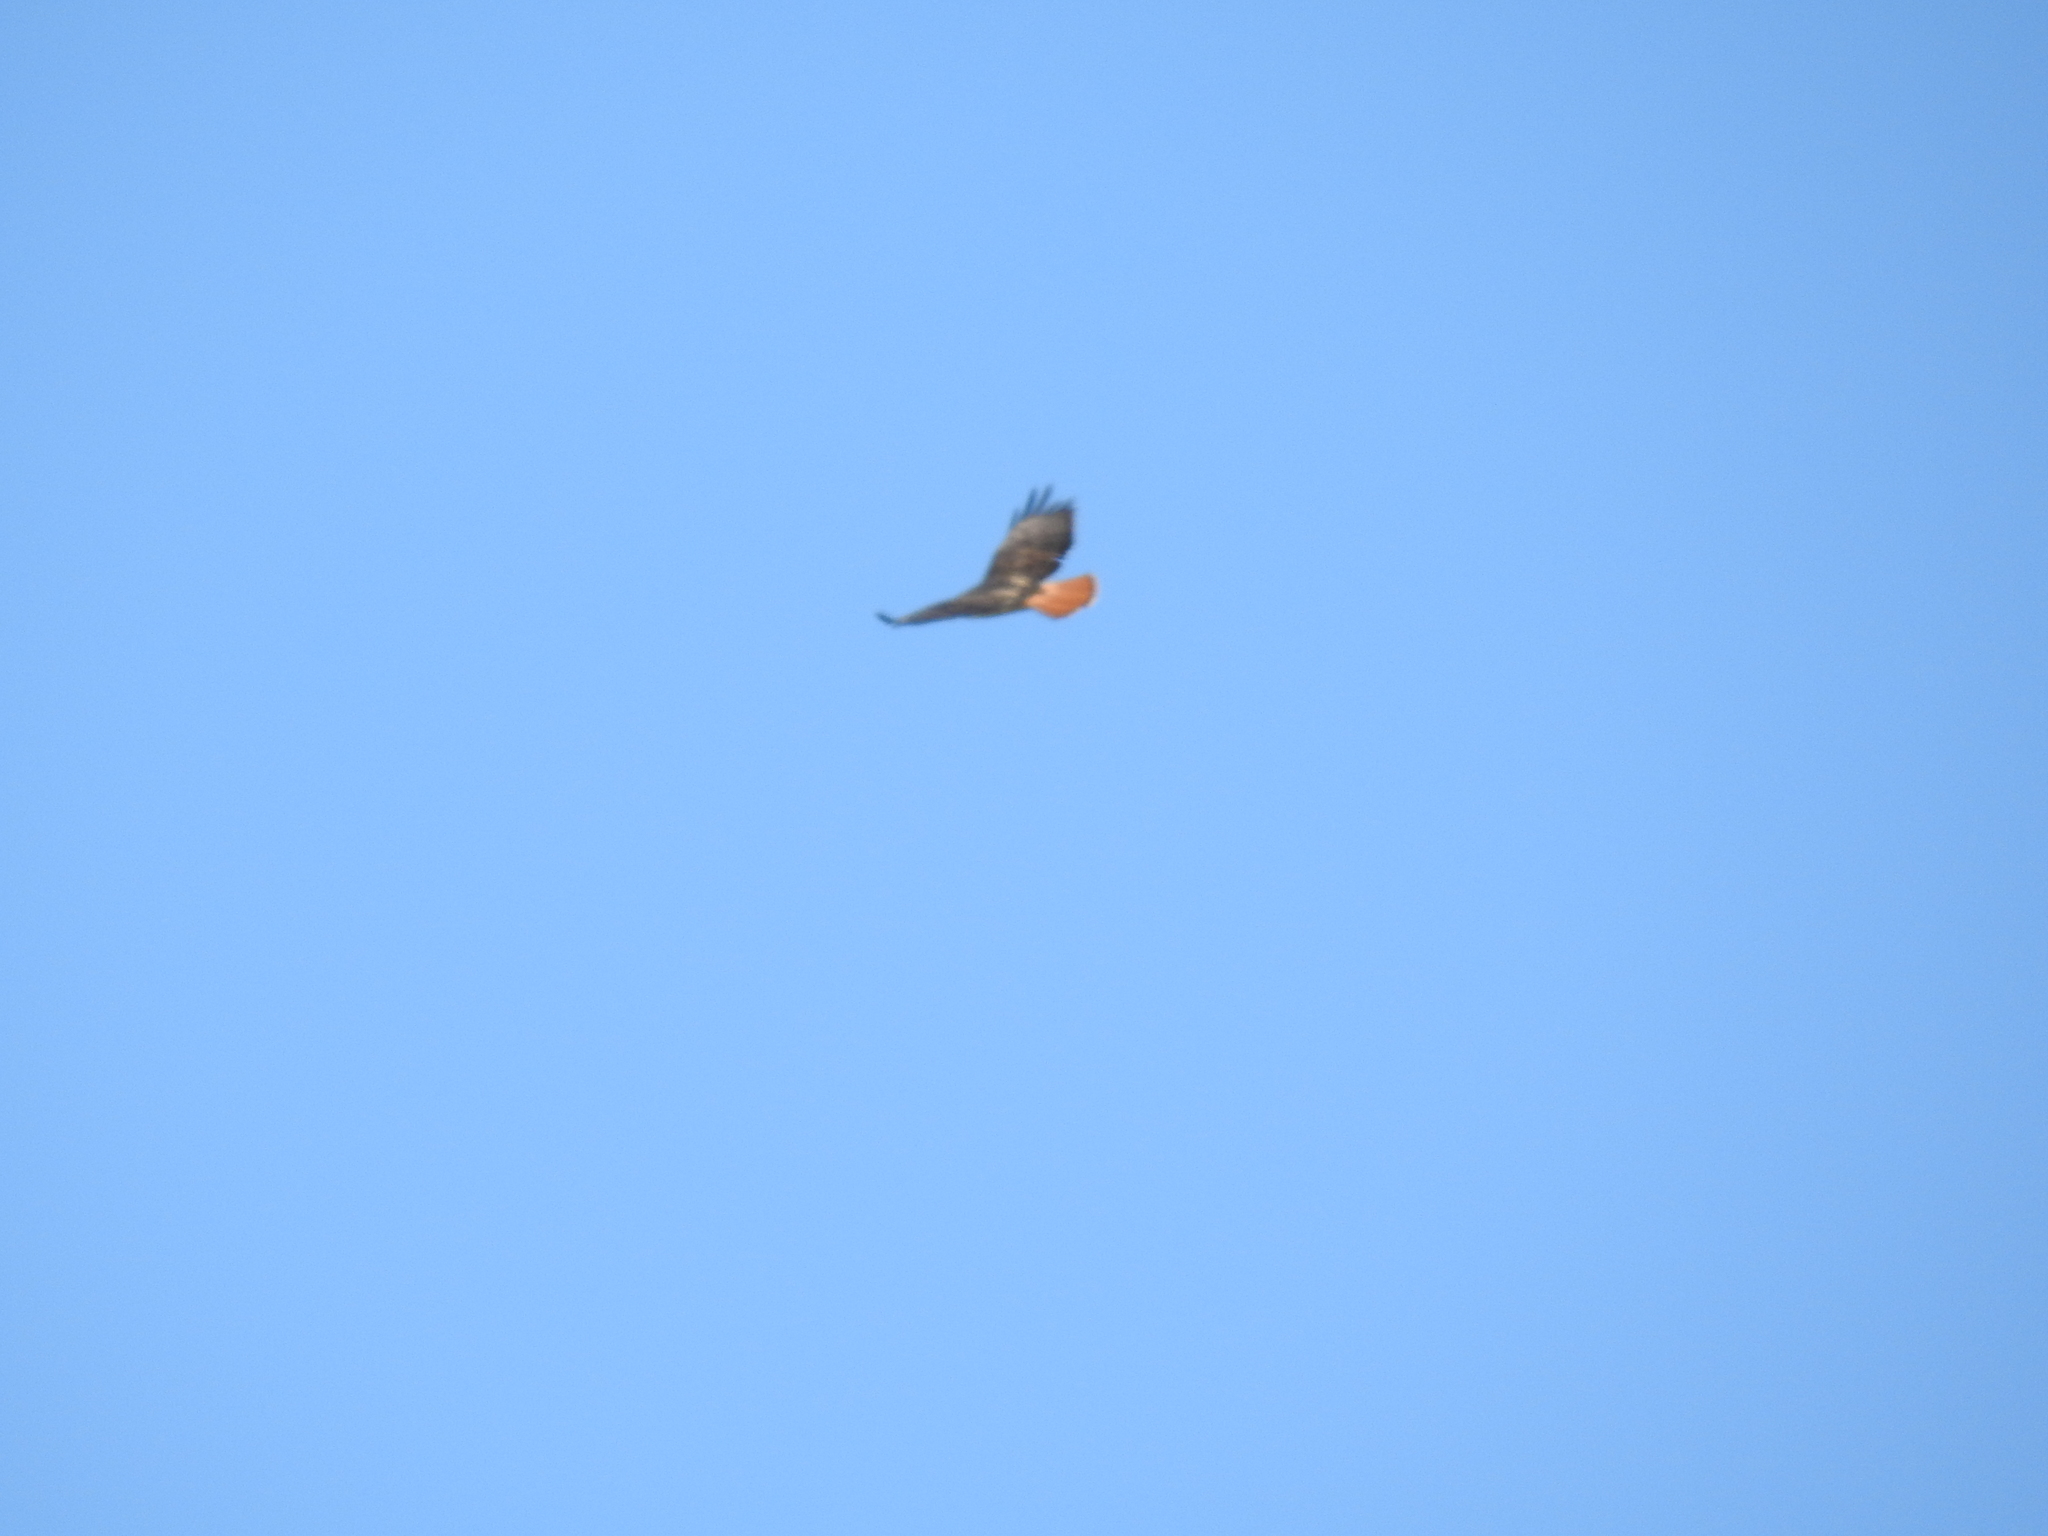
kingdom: Animalia
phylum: Chordata
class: Aves
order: Accipitriformes
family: Accipitridae
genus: Buteo
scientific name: Buteo jamaicensis
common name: Red-tailed hawk
